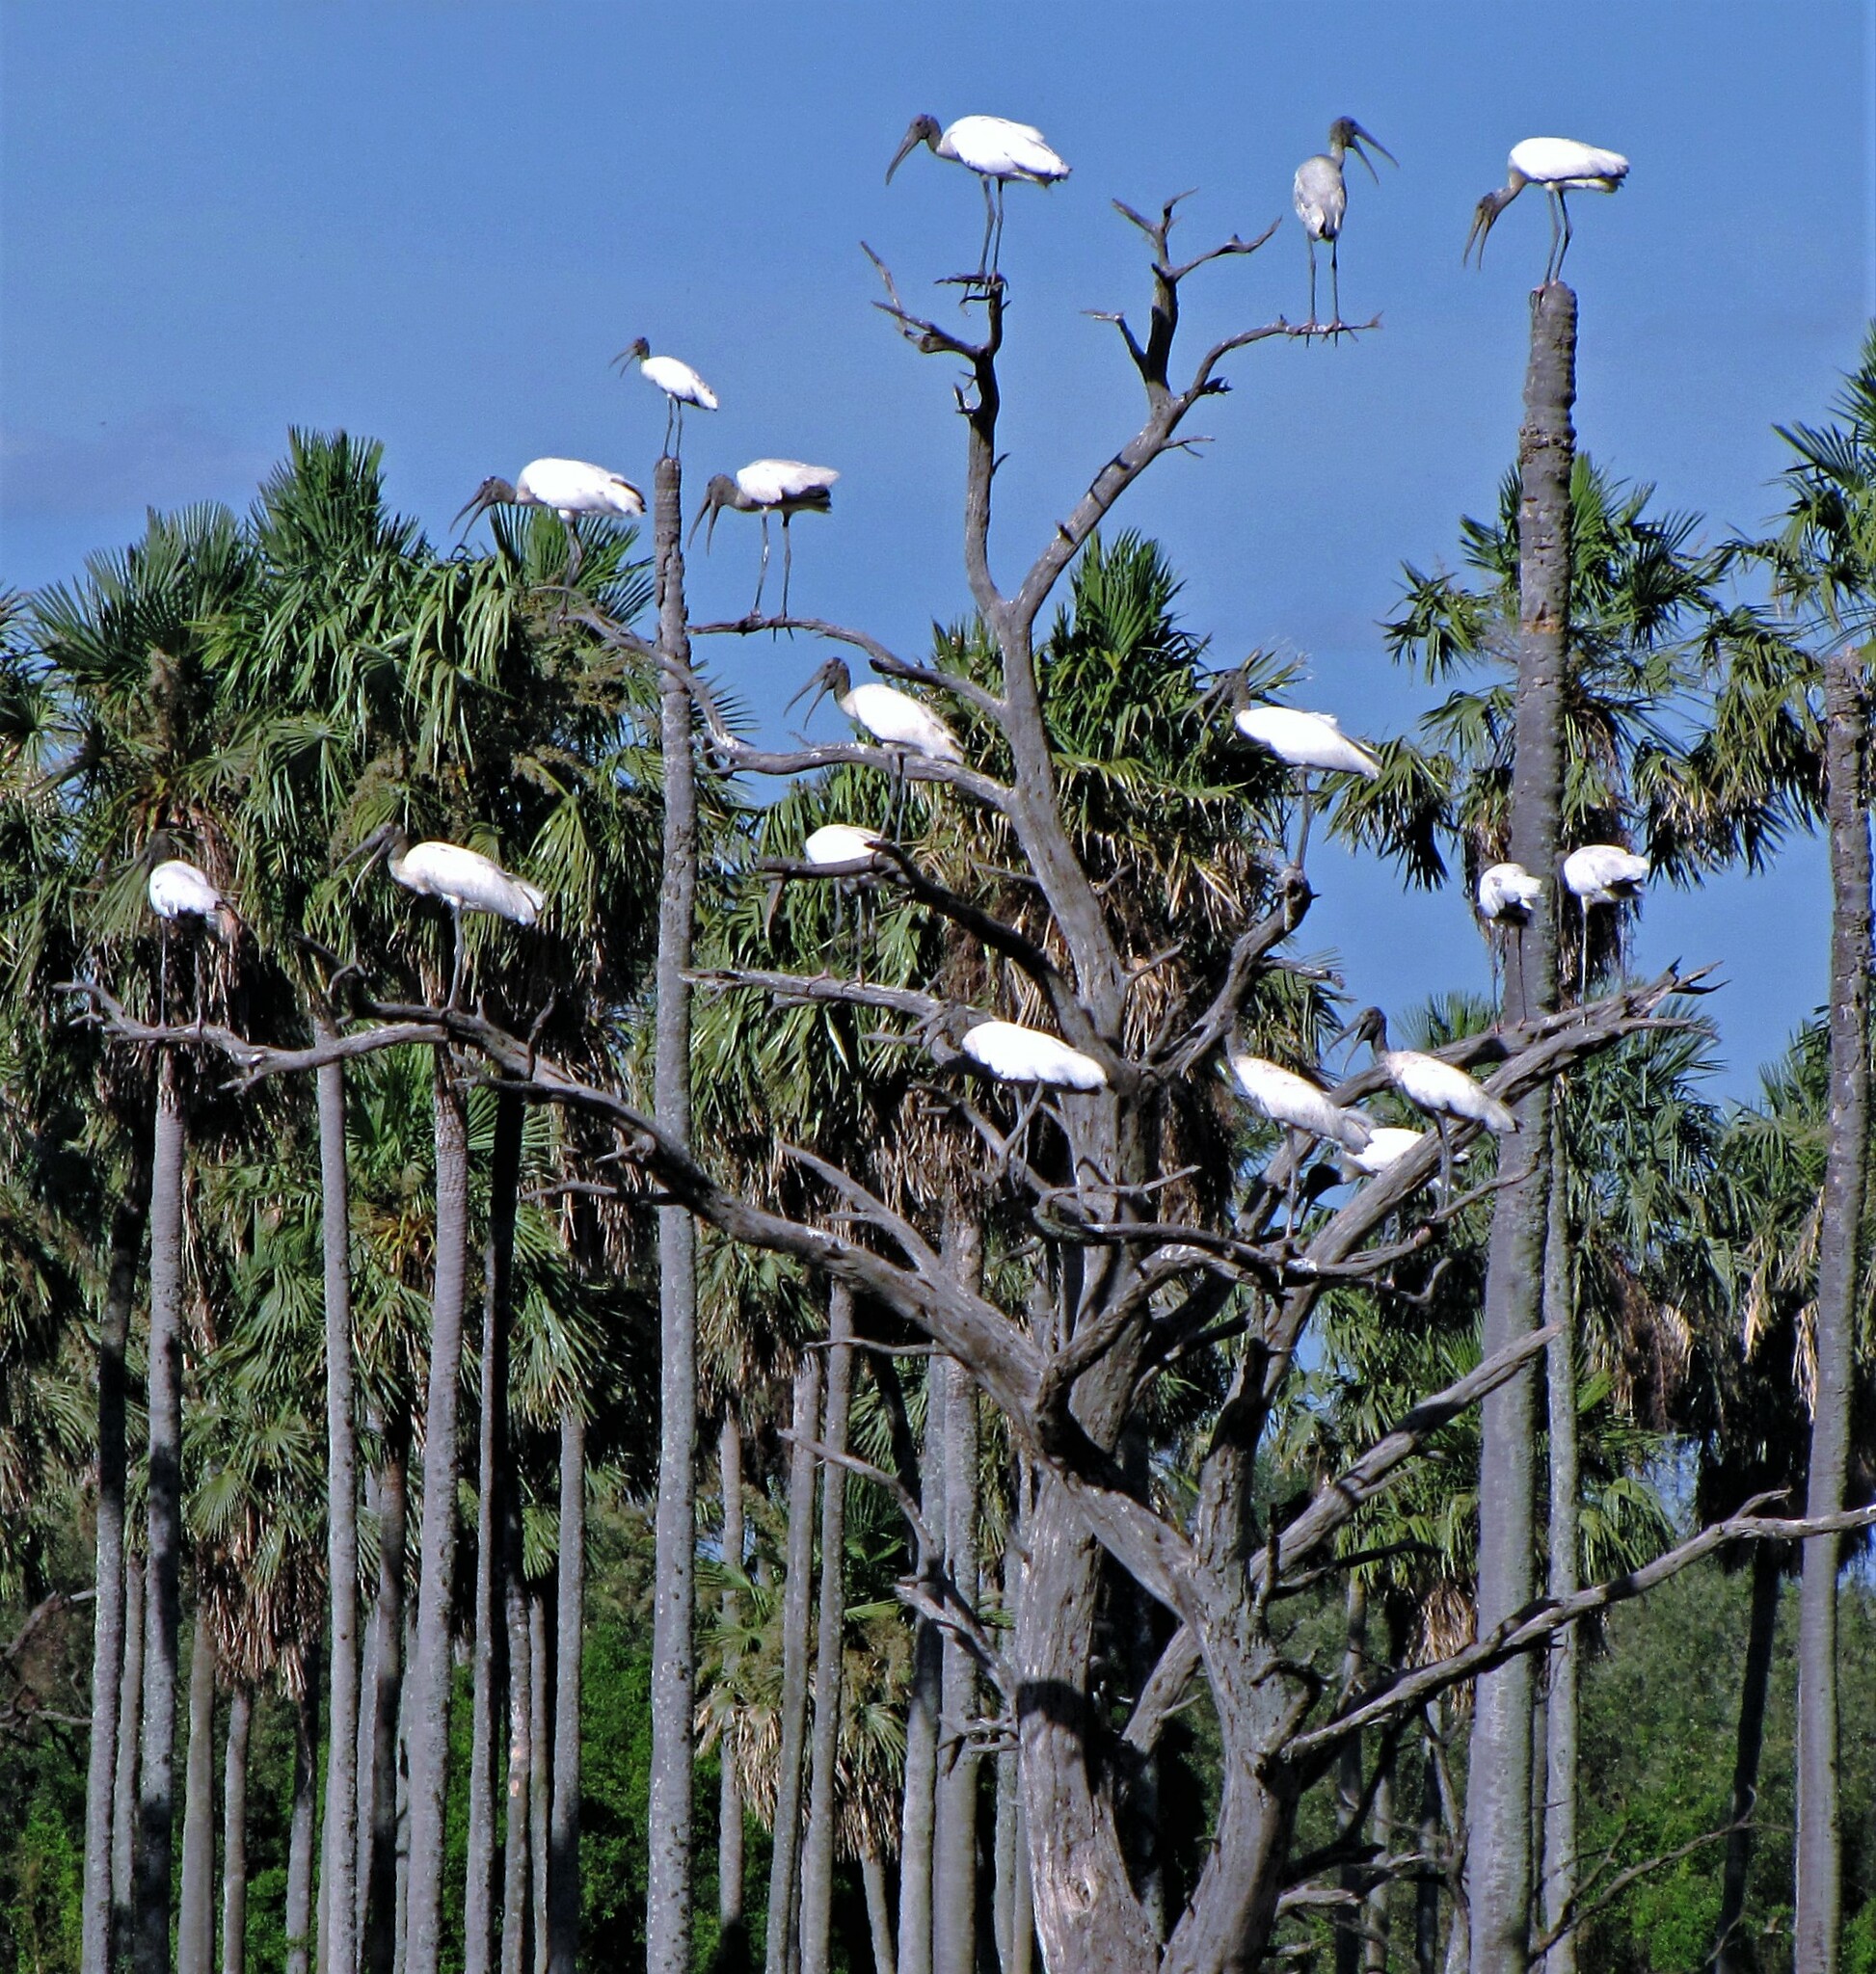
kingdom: Animalia
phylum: Chordata
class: Aves
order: Ciconiiformes
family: Ciconiidae
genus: Mycteria
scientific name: Mycteria americana
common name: Wood stork
